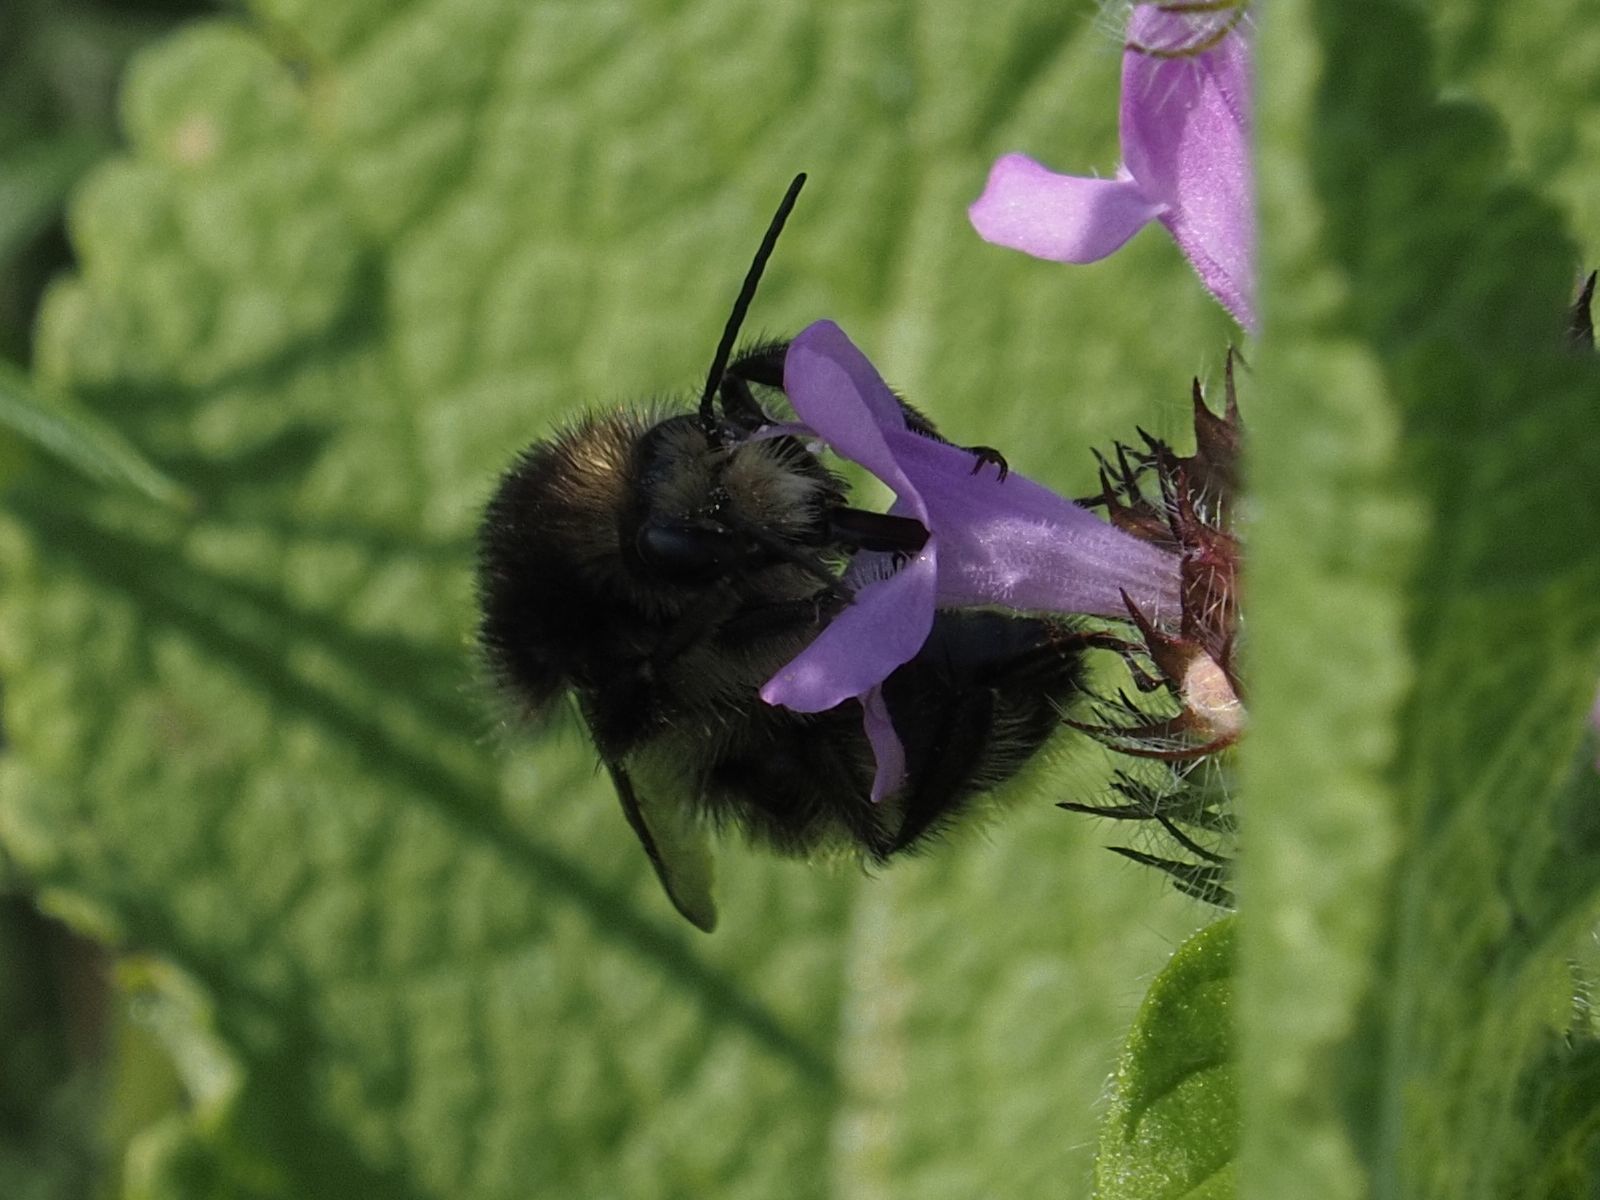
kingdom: Animalia
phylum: Arthropoda
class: Insecta
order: Hymenoptera
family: Apidae
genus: Bombus
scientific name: Bombus humilis
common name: Brown-banded carder-bee
